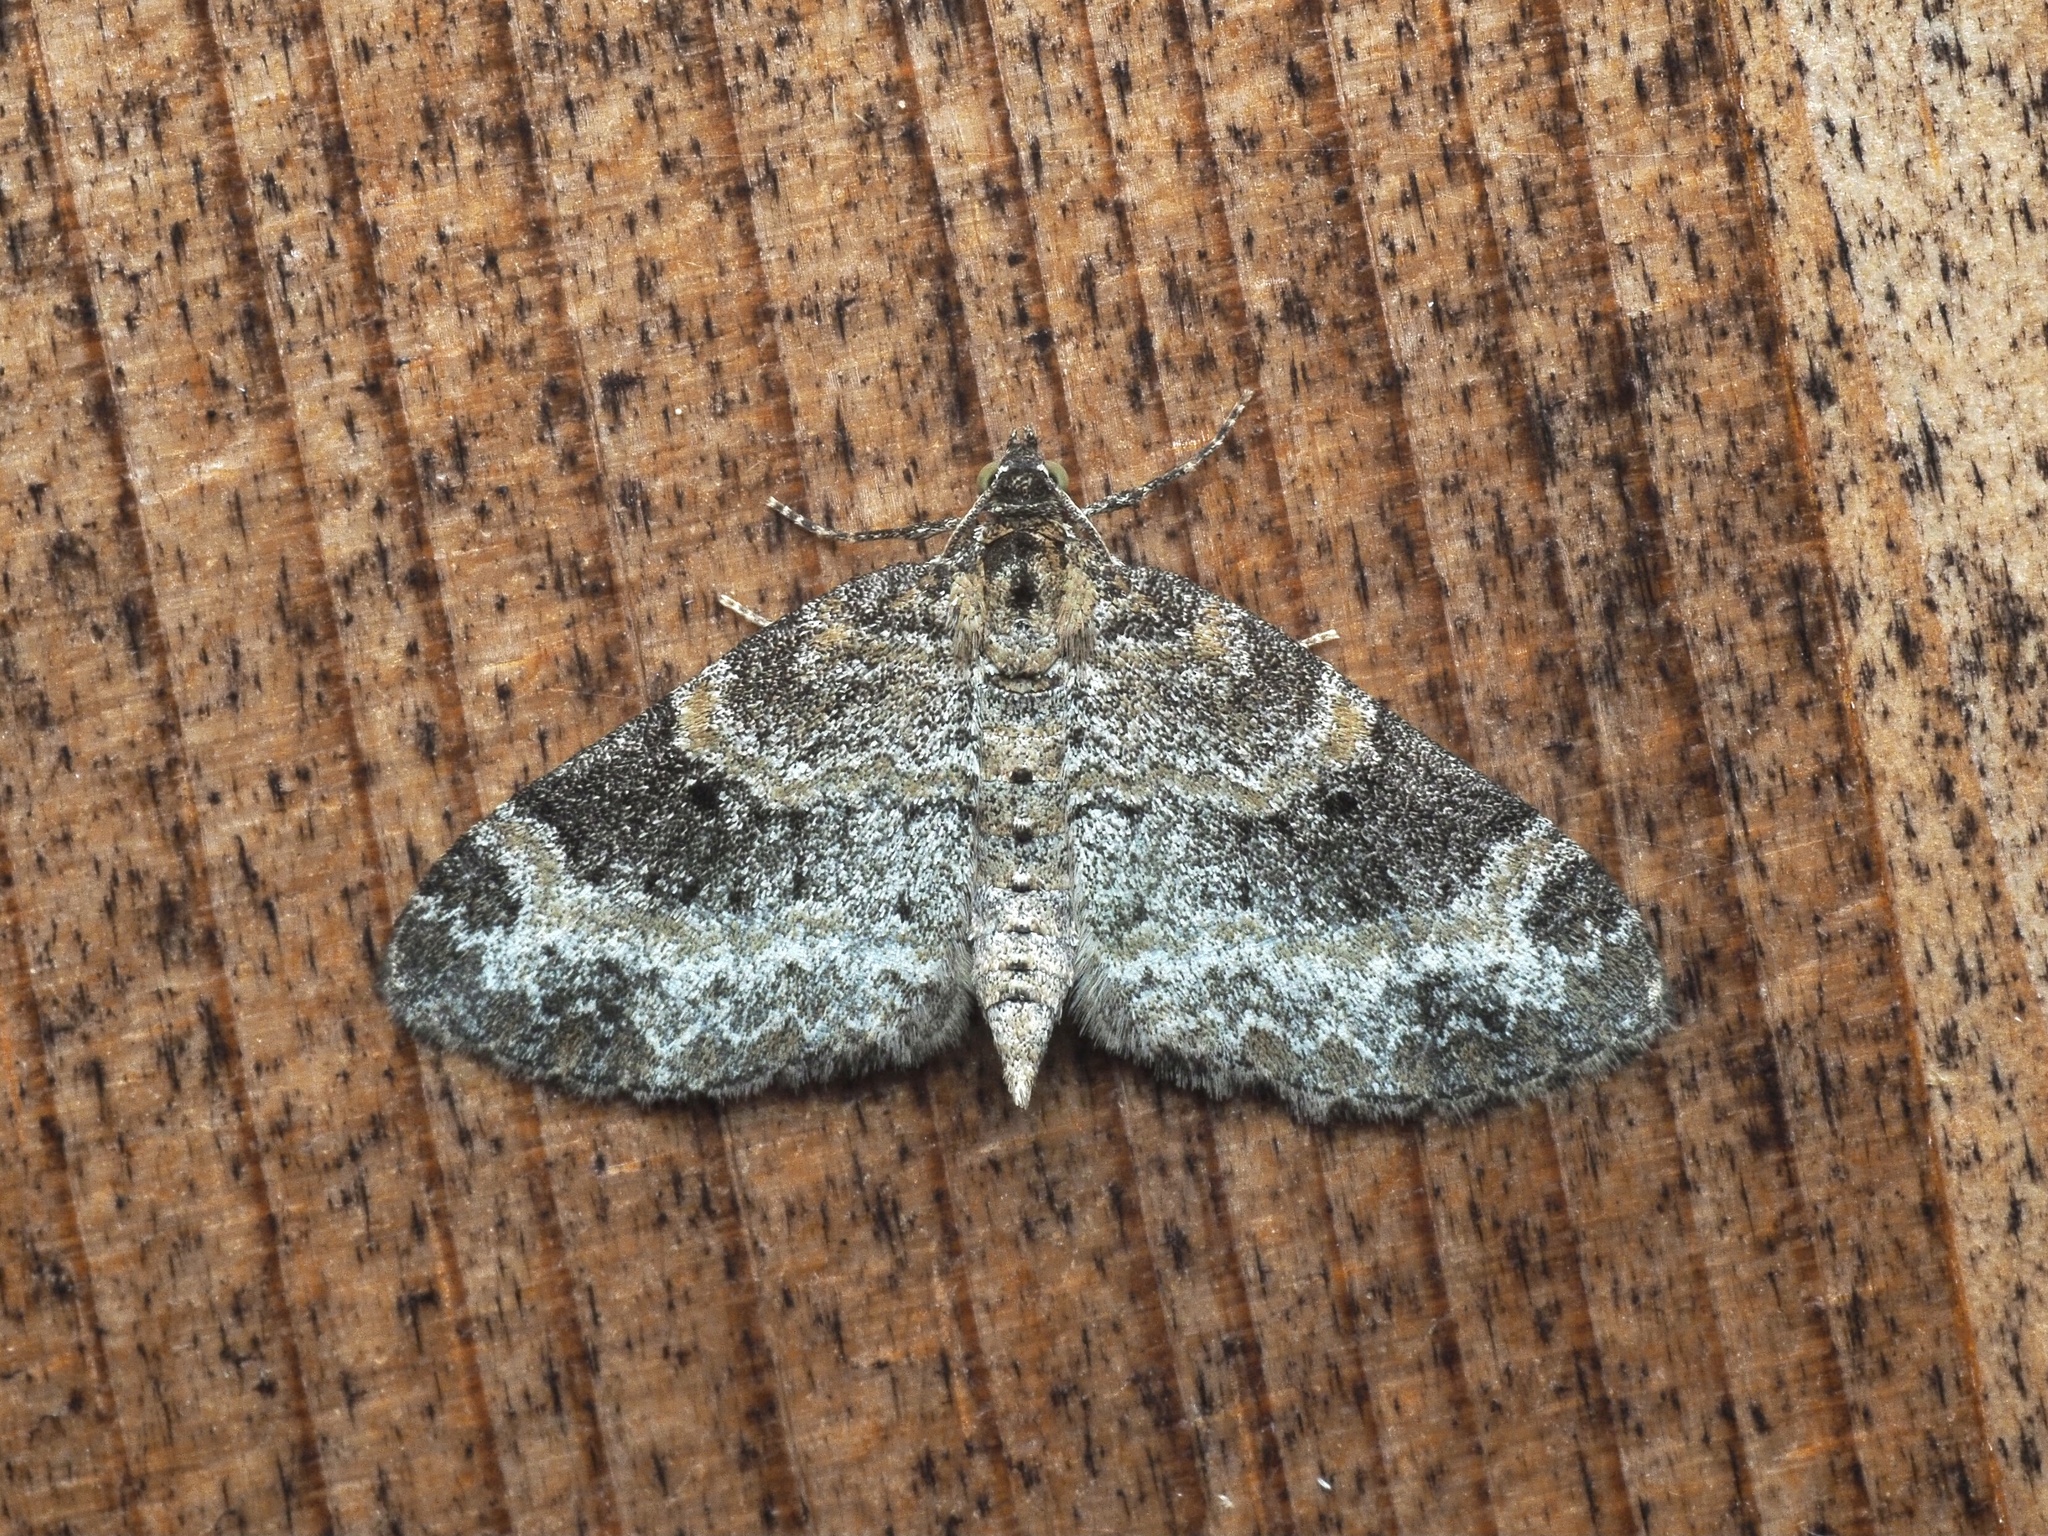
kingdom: Animalia
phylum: Arthropoda
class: Insecta
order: Lepidoptera
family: Geometridae
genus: Pterapherapteryx
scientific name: Pterapherapteryx sexalata
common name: Small seraphim
